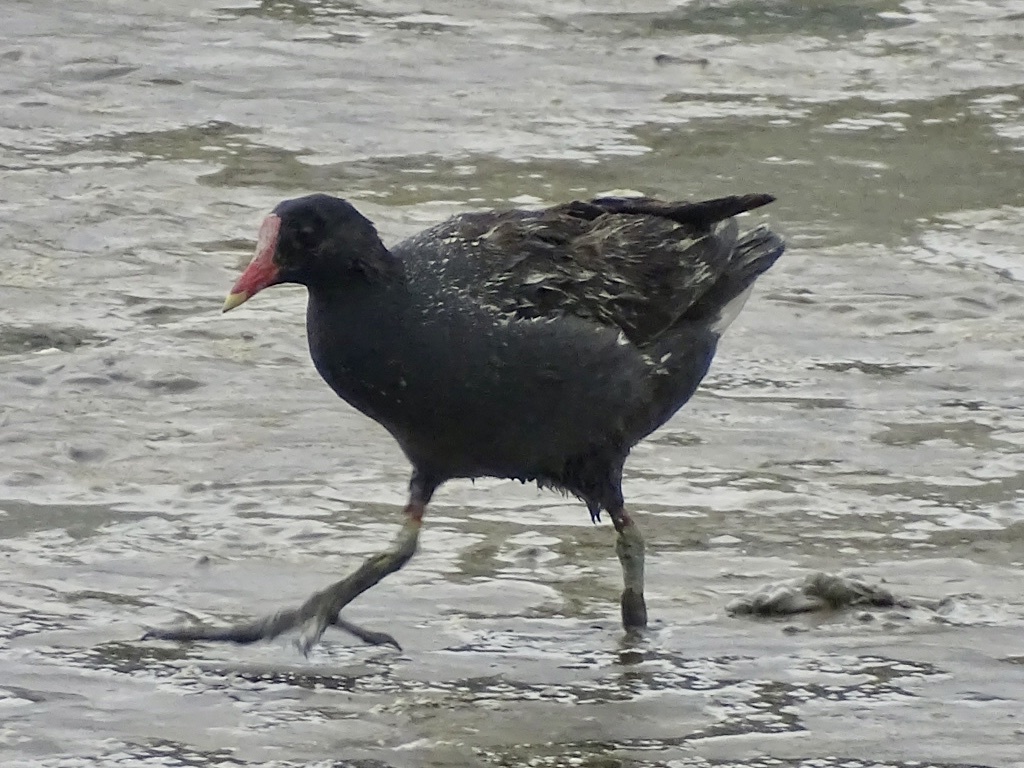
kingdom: Animalia
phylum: Chordata
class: Aves
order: Gruiformes
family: Rallidae
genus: Gallinula
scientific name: Gallinula chloropus
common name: Common moorhen
